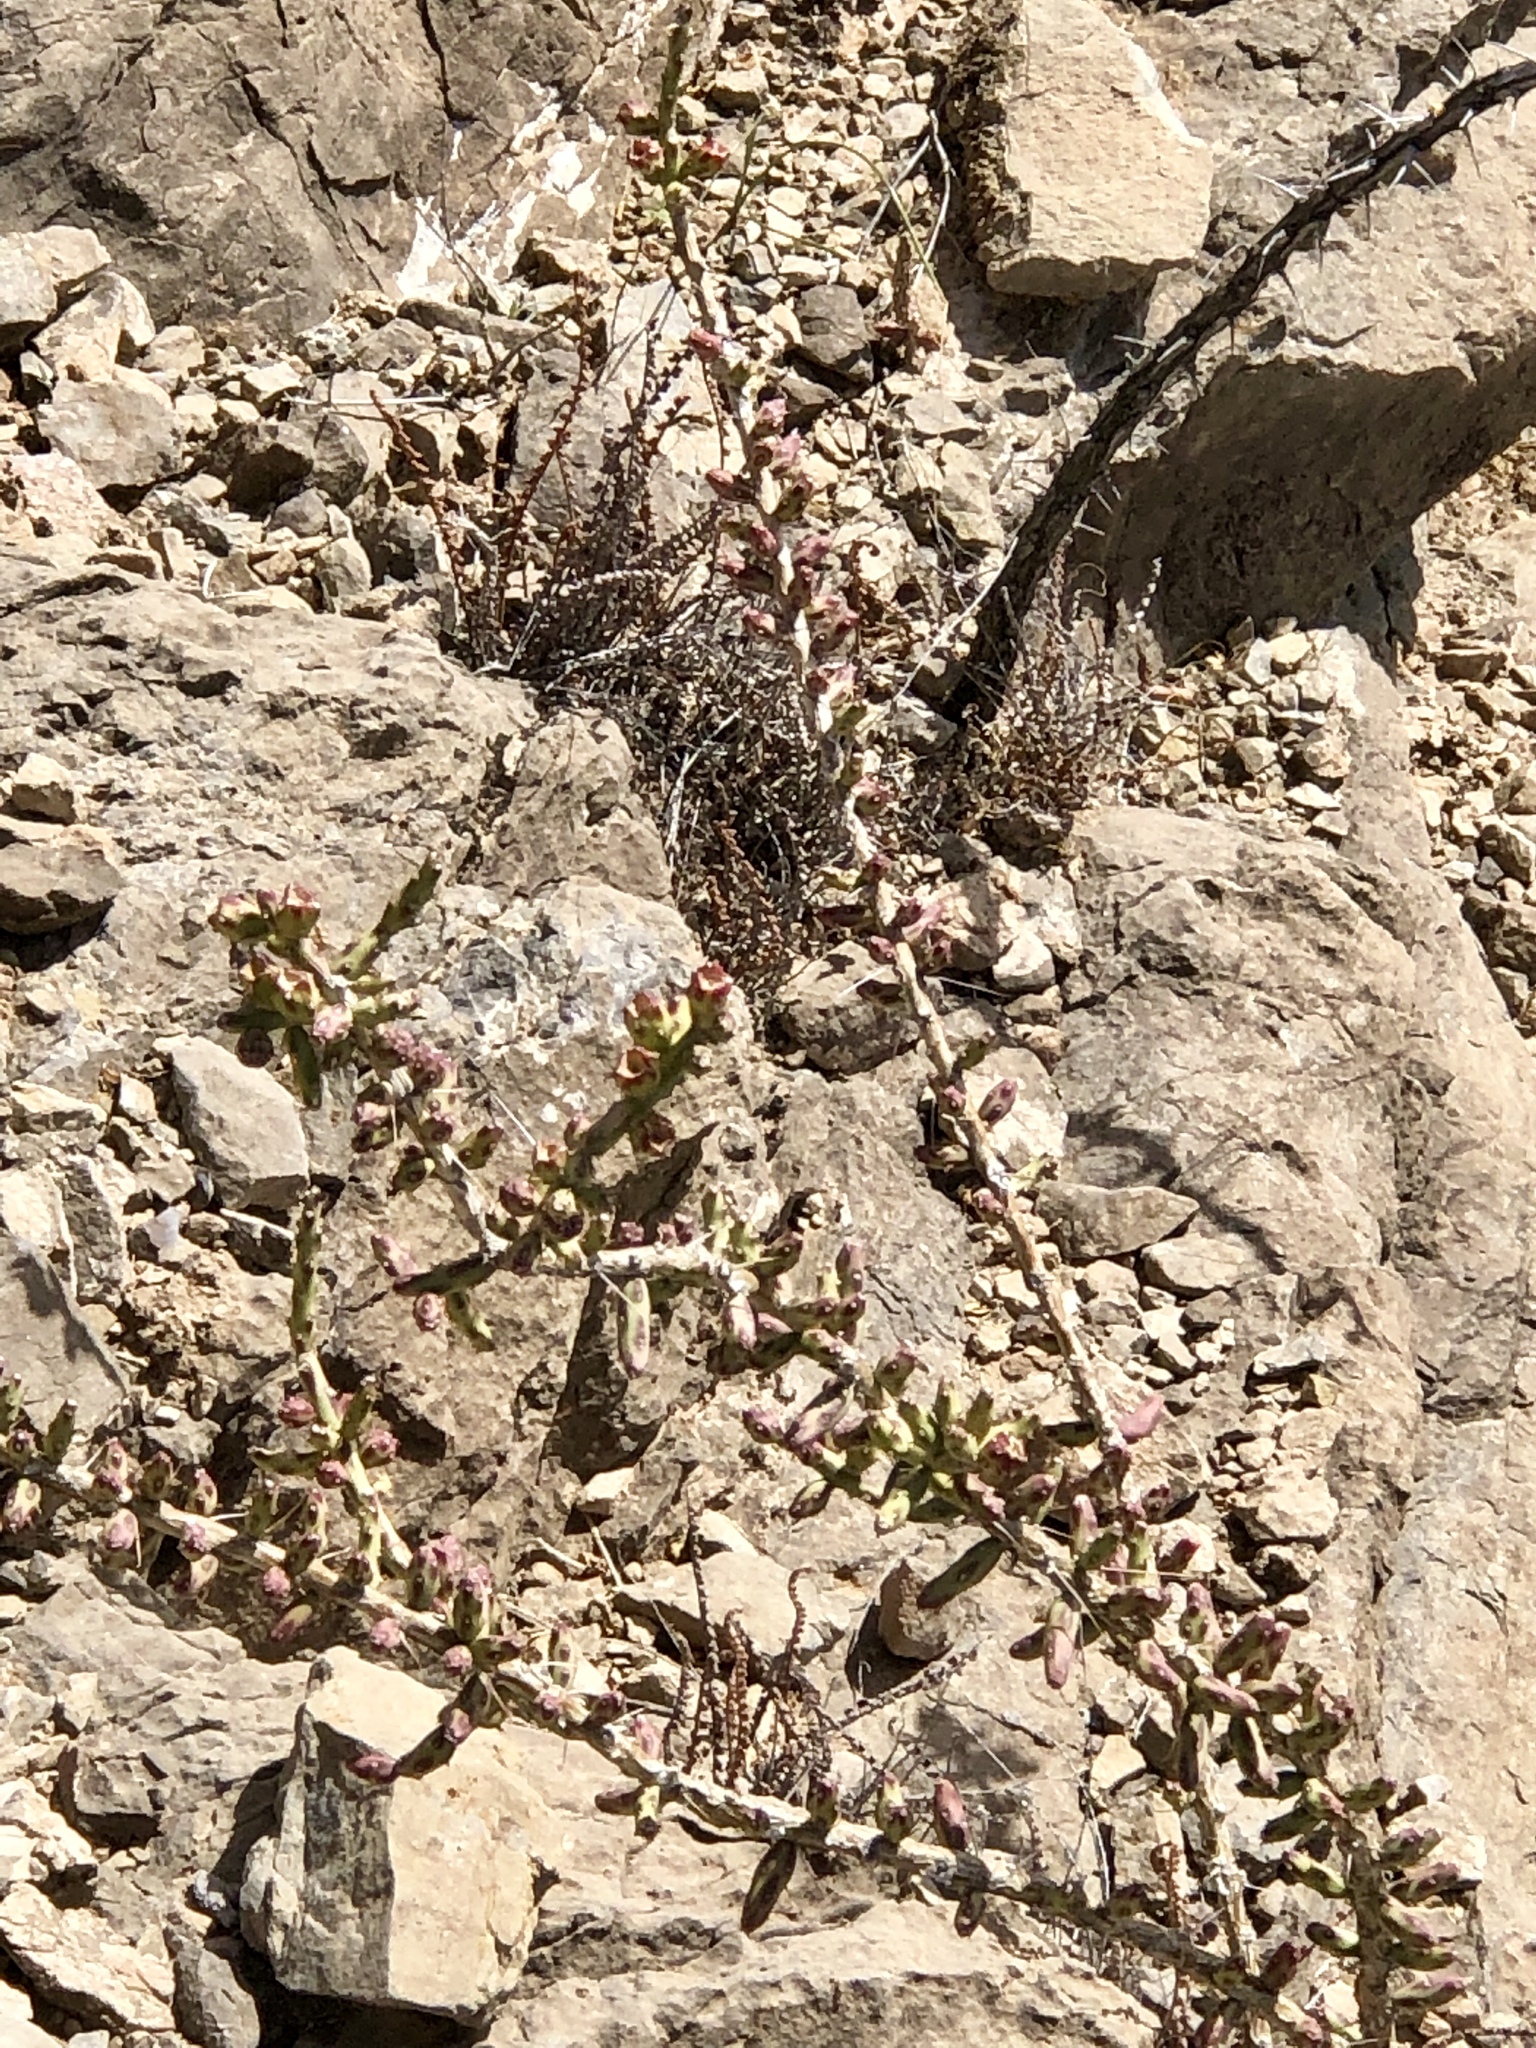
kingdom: Plantae
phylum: Tracheophyta
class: Magnoliopsida
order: Caryophyllales
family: Cactaceae
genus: Cylindropuntia
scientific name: Cylindropuntia leptocaulis
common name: Christmas cactus
